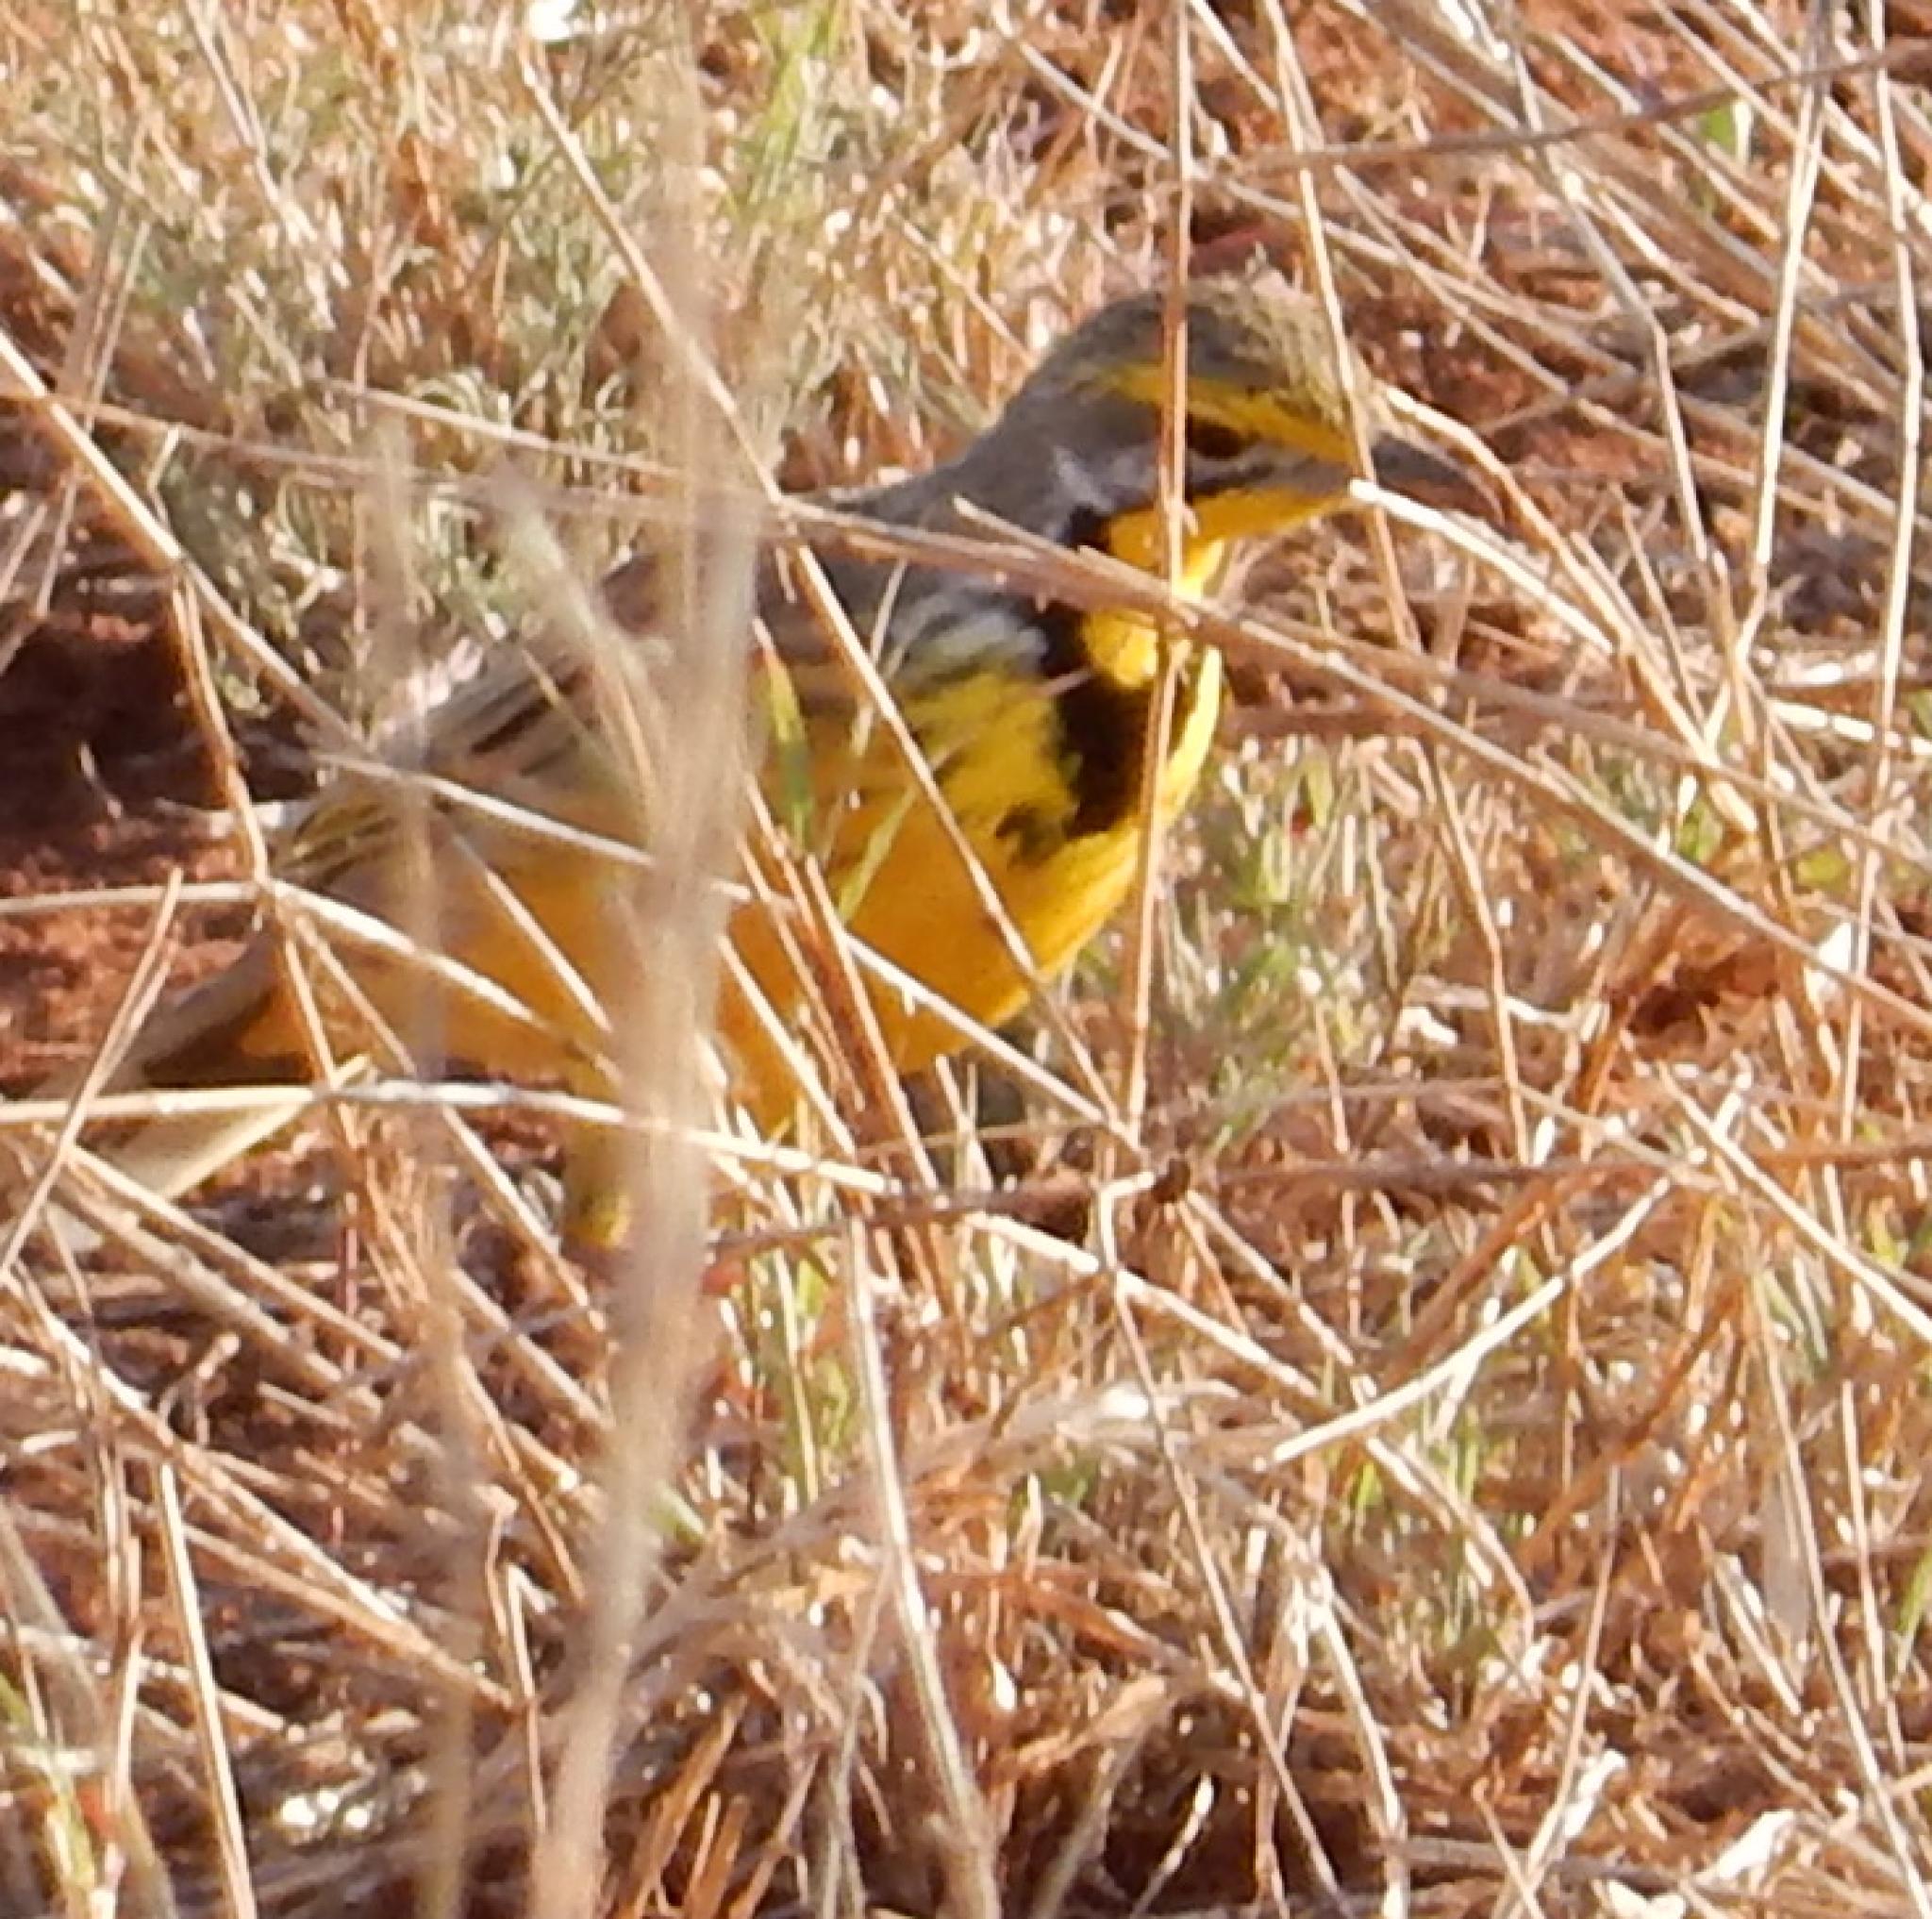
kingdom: Animalia
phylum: Chordata
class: Aves
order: Passeriformes
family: Motacillidae
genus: Macronyx
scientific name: Macronyx croceus
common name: Yellow-throated longclaw
